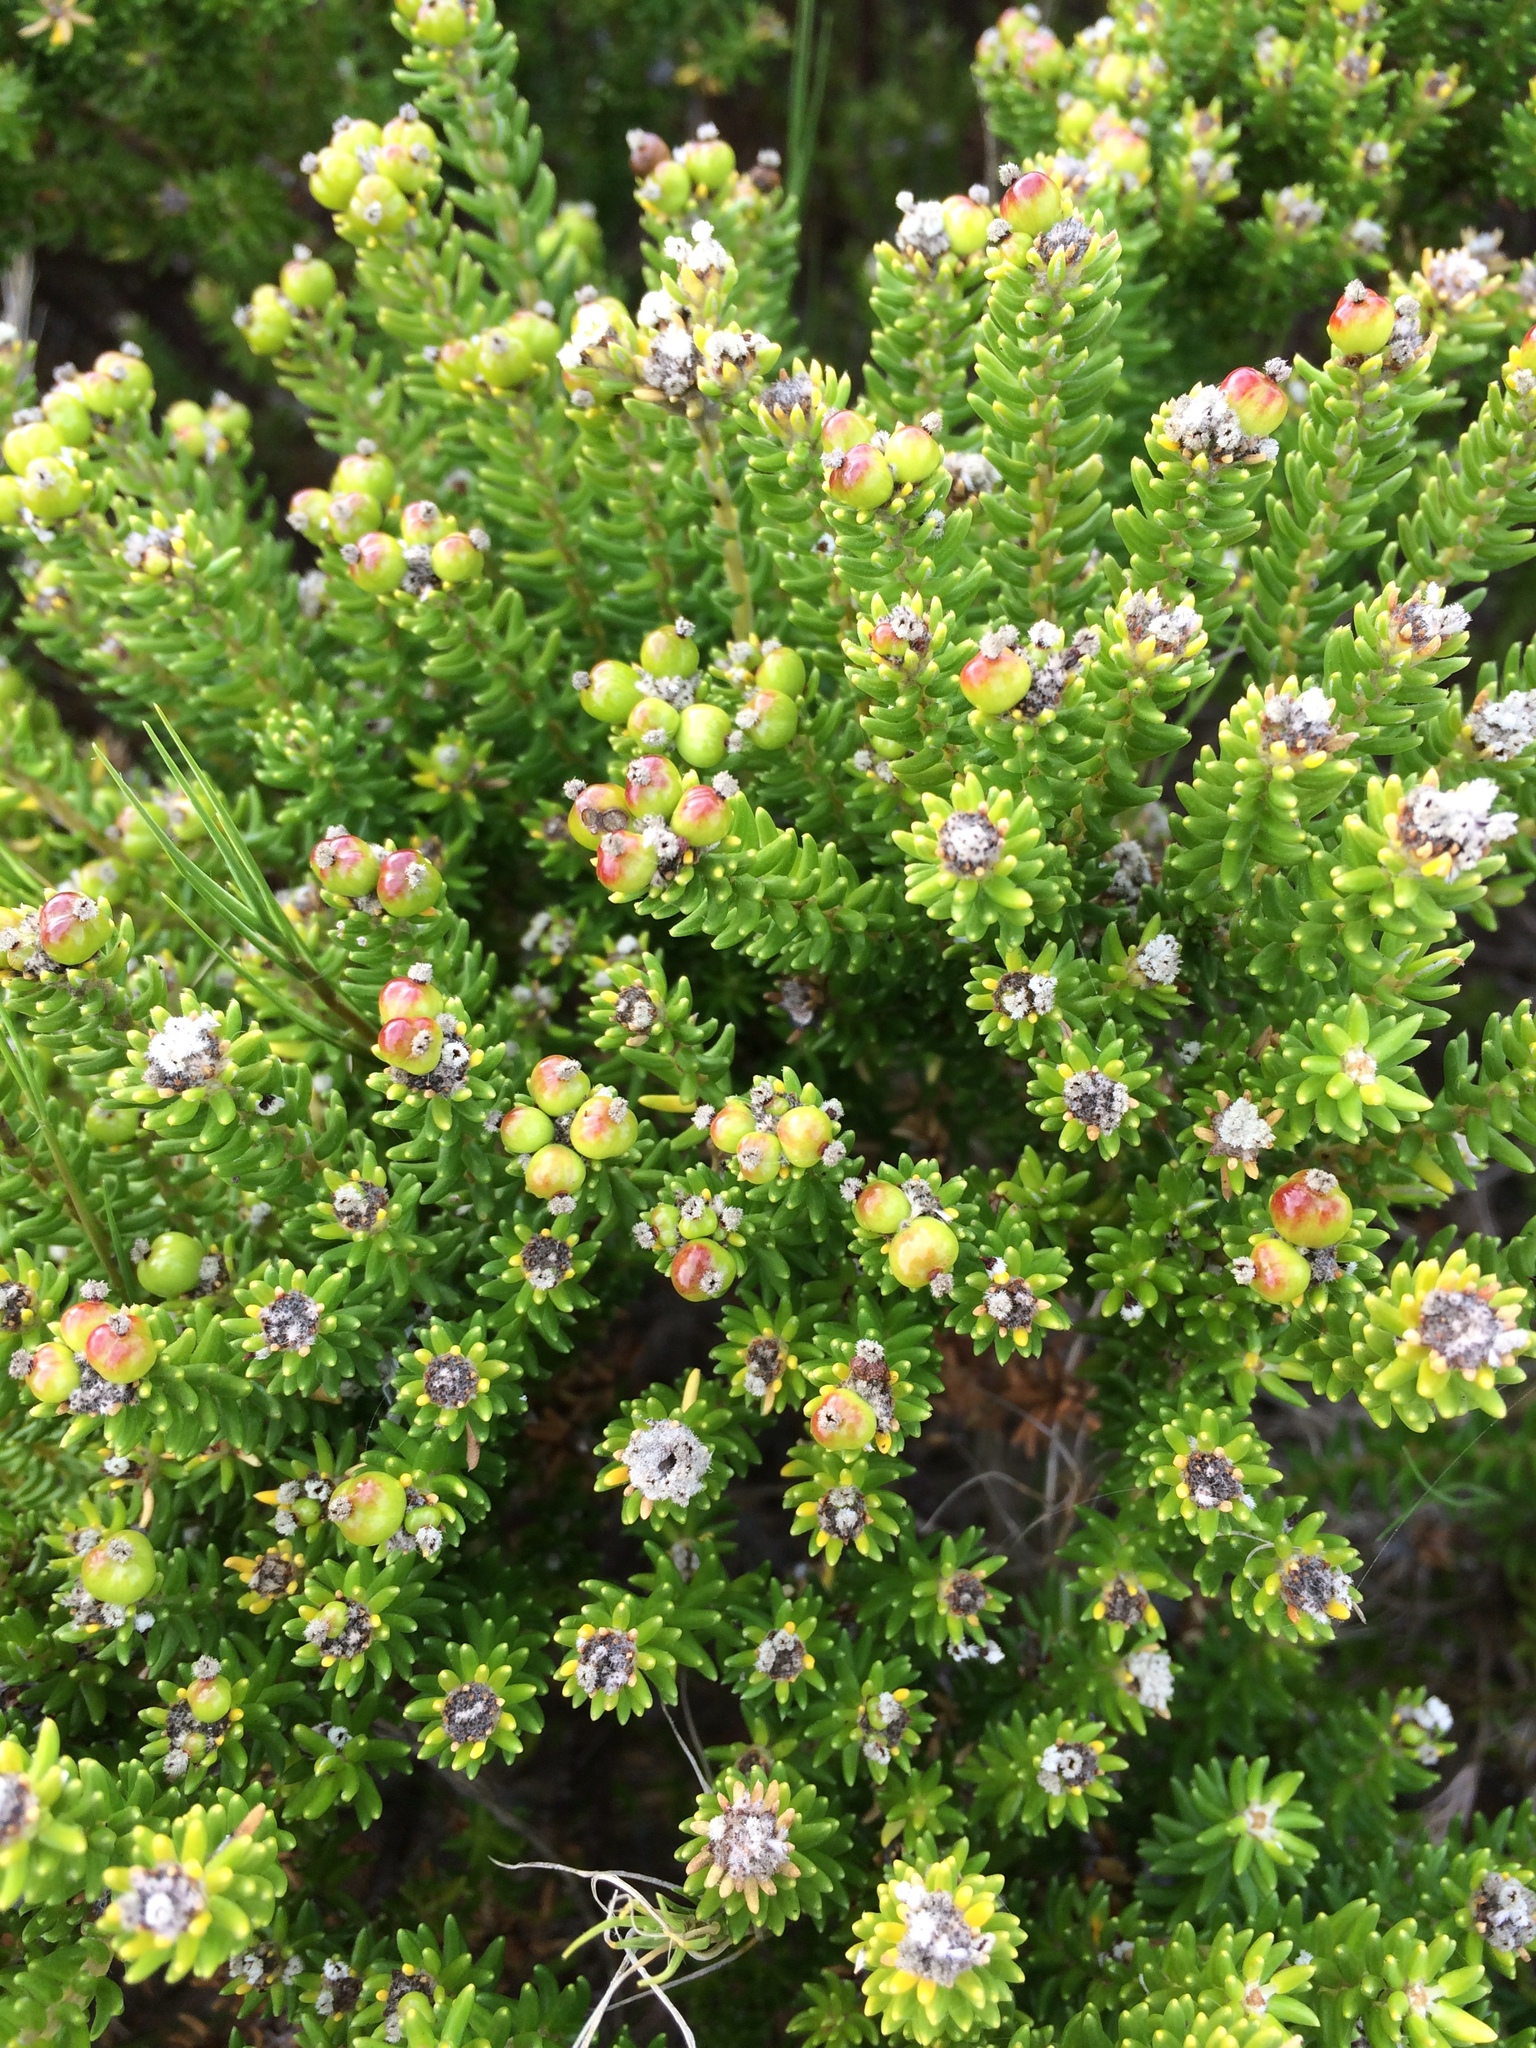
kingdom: Plantae
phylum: Tracheophyta
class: Magnoliopsida
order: Rosales
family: Rhamnaceae
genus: Phylica
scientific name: Phylica ericoides
